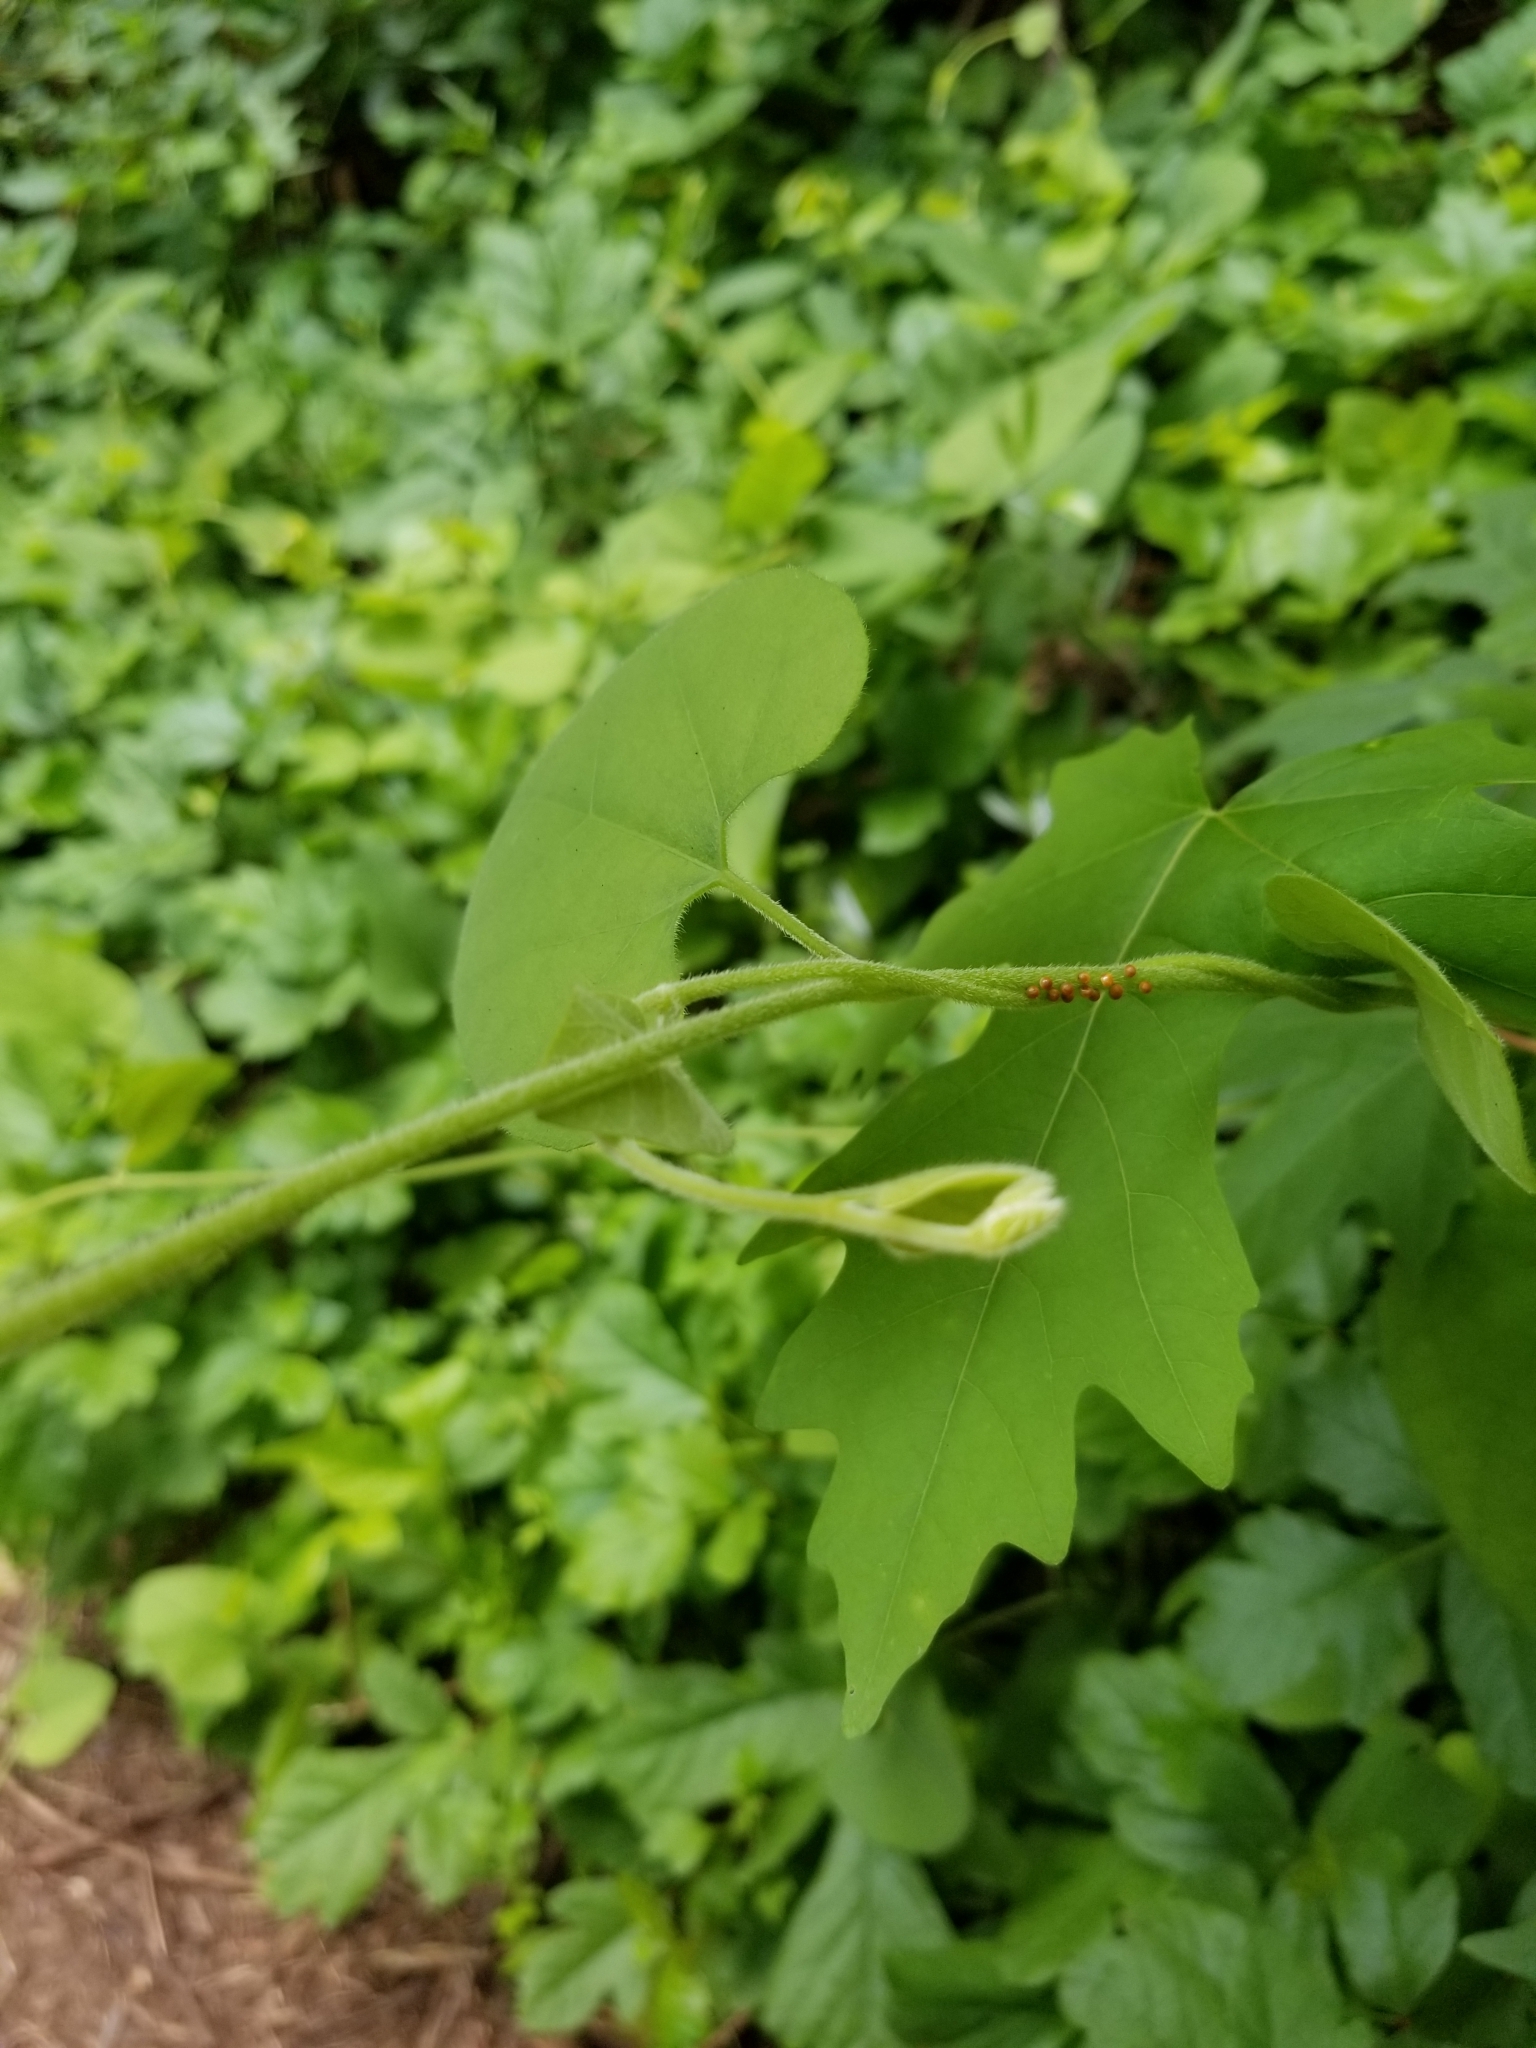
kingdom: Plantae
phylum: Tracheophyta
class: Magnoliopsida
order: Piperales
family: Aristolochiaceae
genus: Isotrema
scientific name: Isotrema californicum
